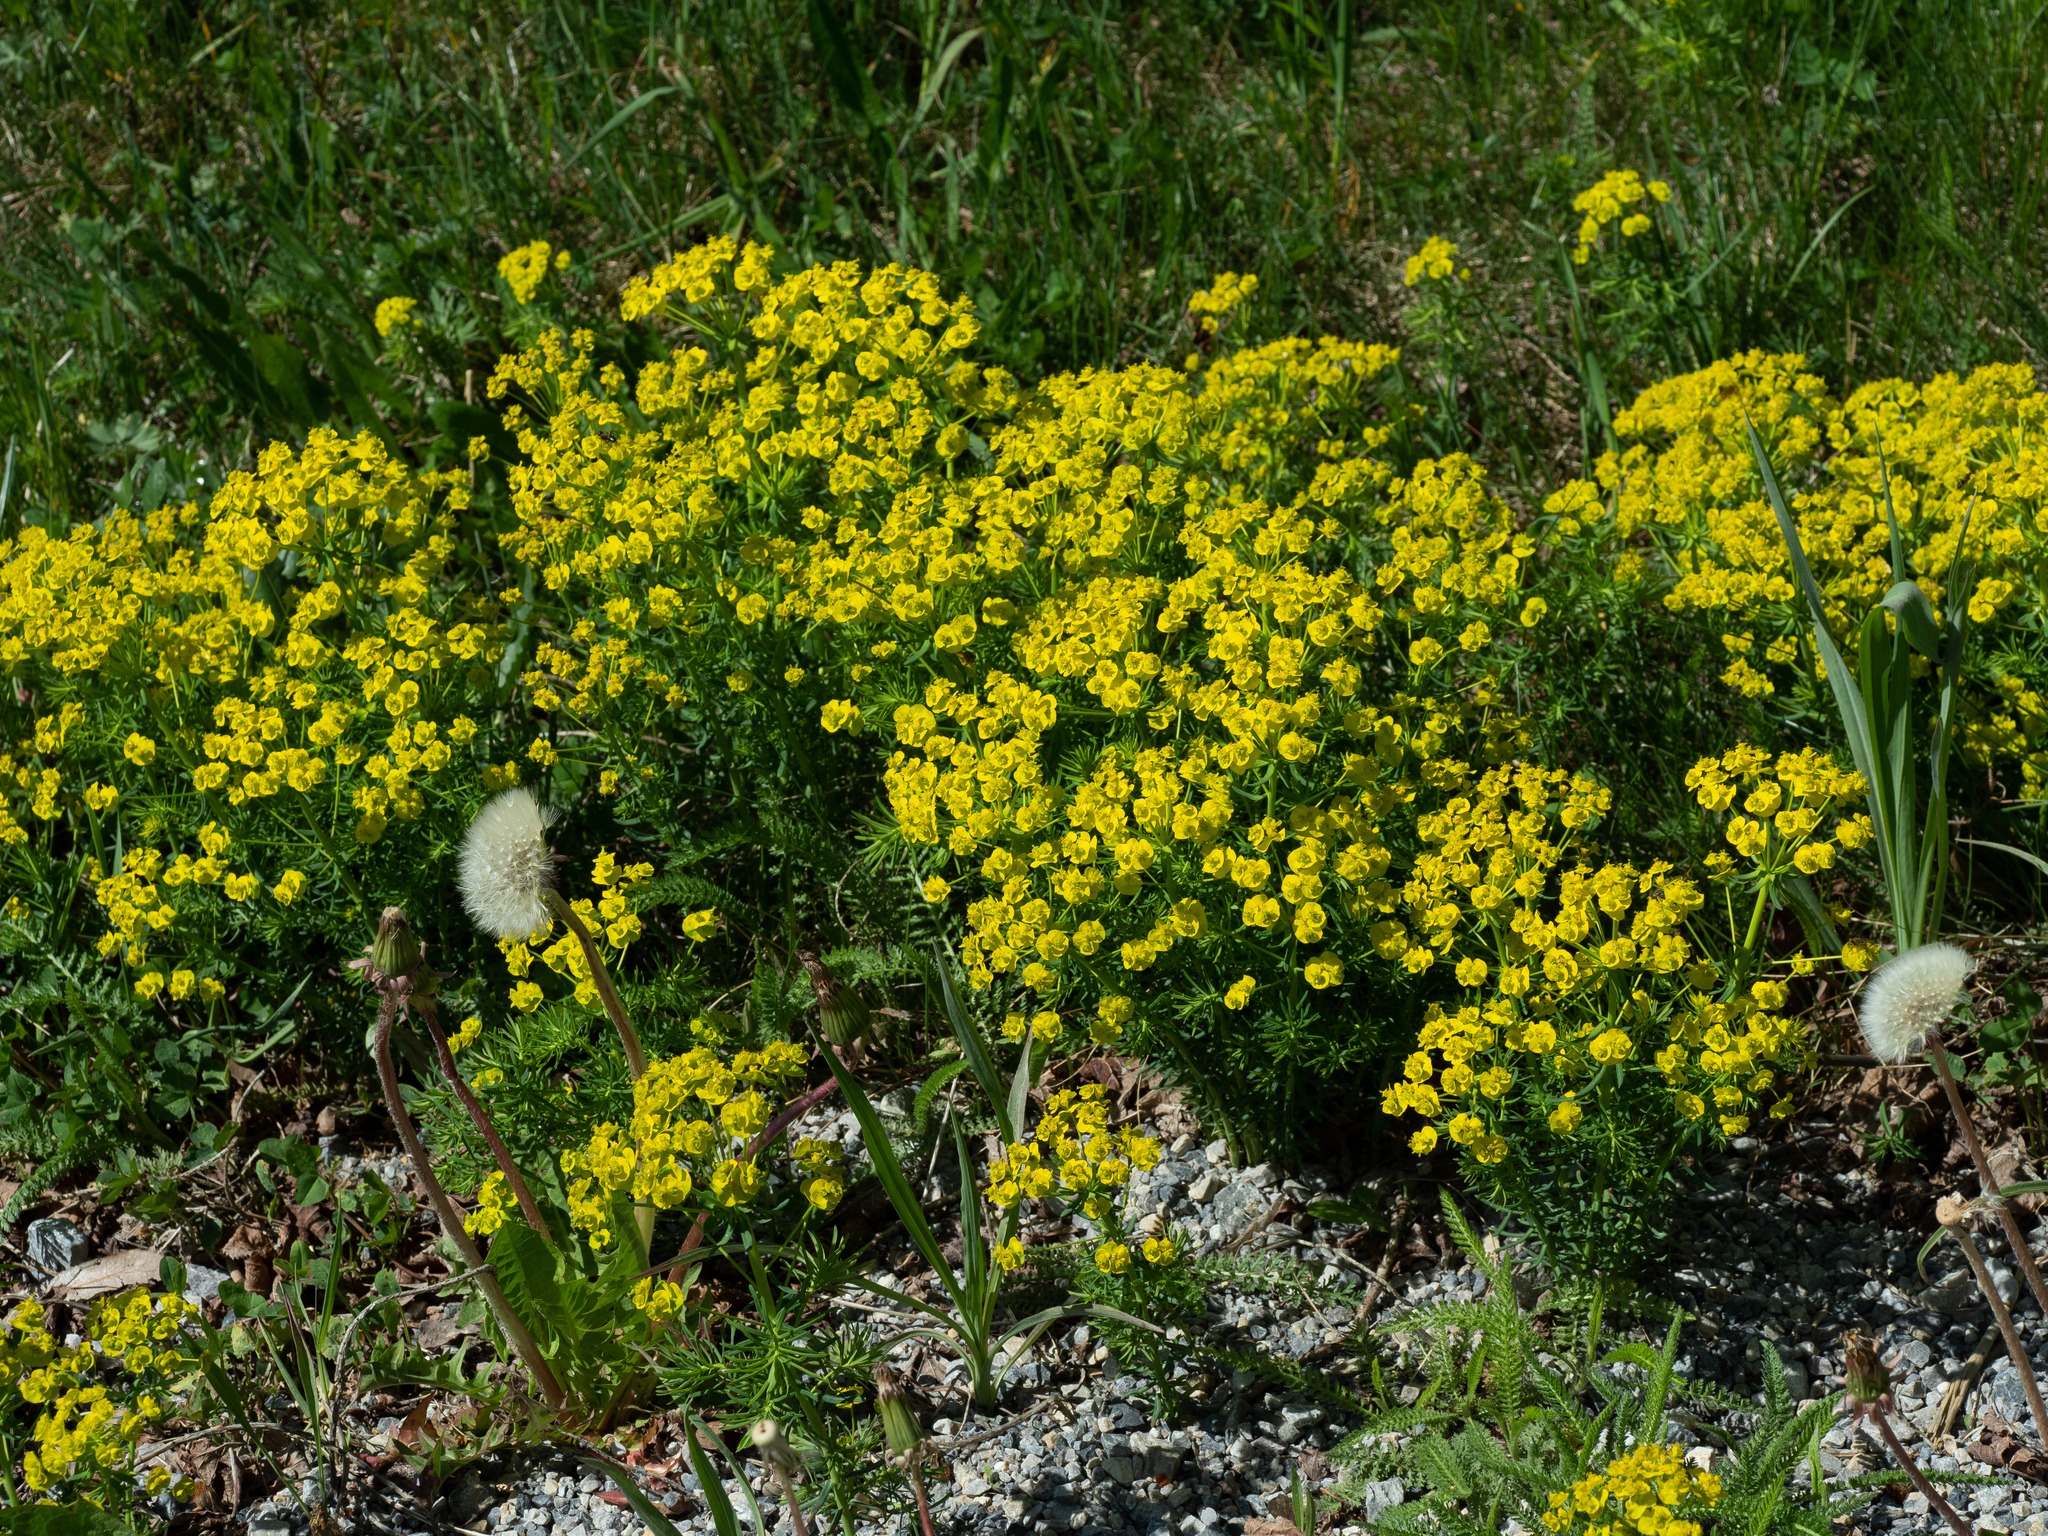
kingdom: Plantae
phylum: Tracheophyta
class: Magnoliopsida
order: Malpighiales
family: Euphorbiaceae
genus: Euphorbia
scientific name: Euphorbia cyparissias
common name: Cypress spurge
